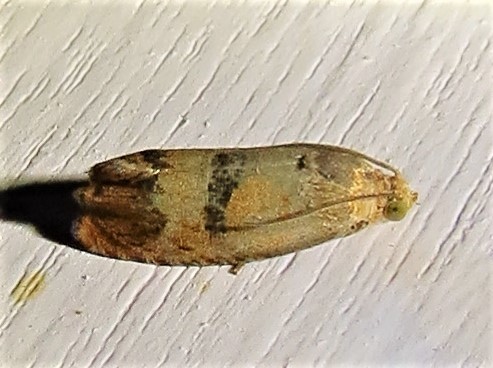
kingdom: Animalia
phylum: Arthropoda
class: Insecta
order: Lepidoptera
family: Tortricidae
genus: Cydia
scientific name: Cydia latiferreana
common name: Filbertworm moth
